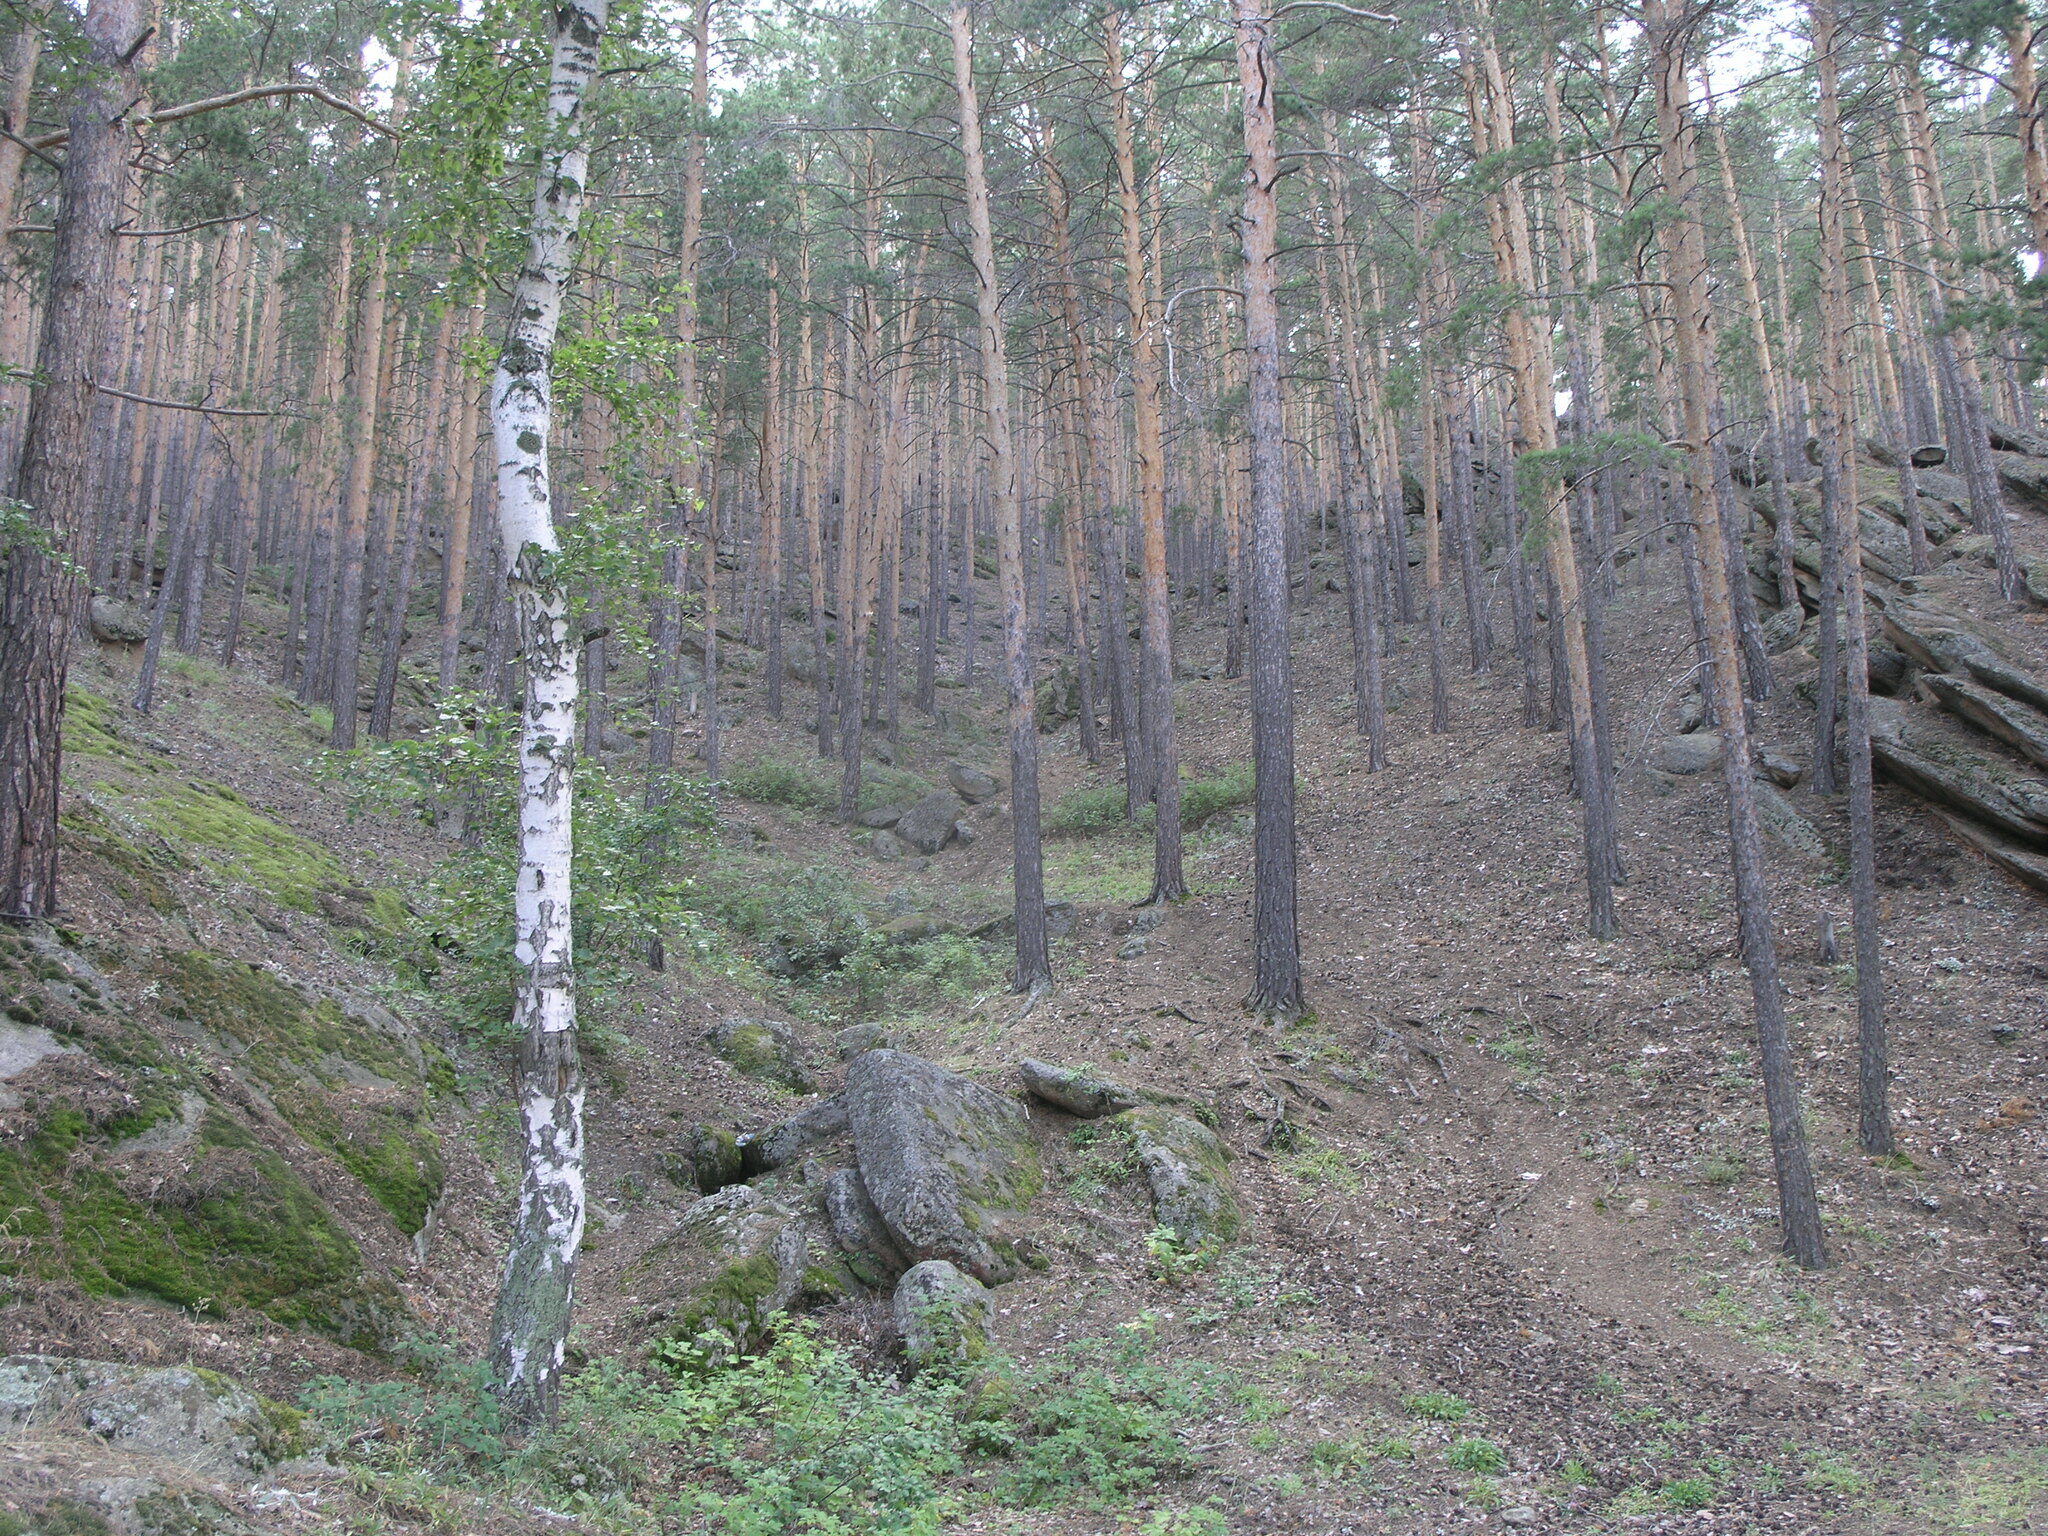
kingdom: Plantae
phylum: Tracheophyta
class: Pinopsida
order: Pinales
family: Pinaceae
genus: Pinus
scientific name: Pinus sylvestris
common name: Scots pine
